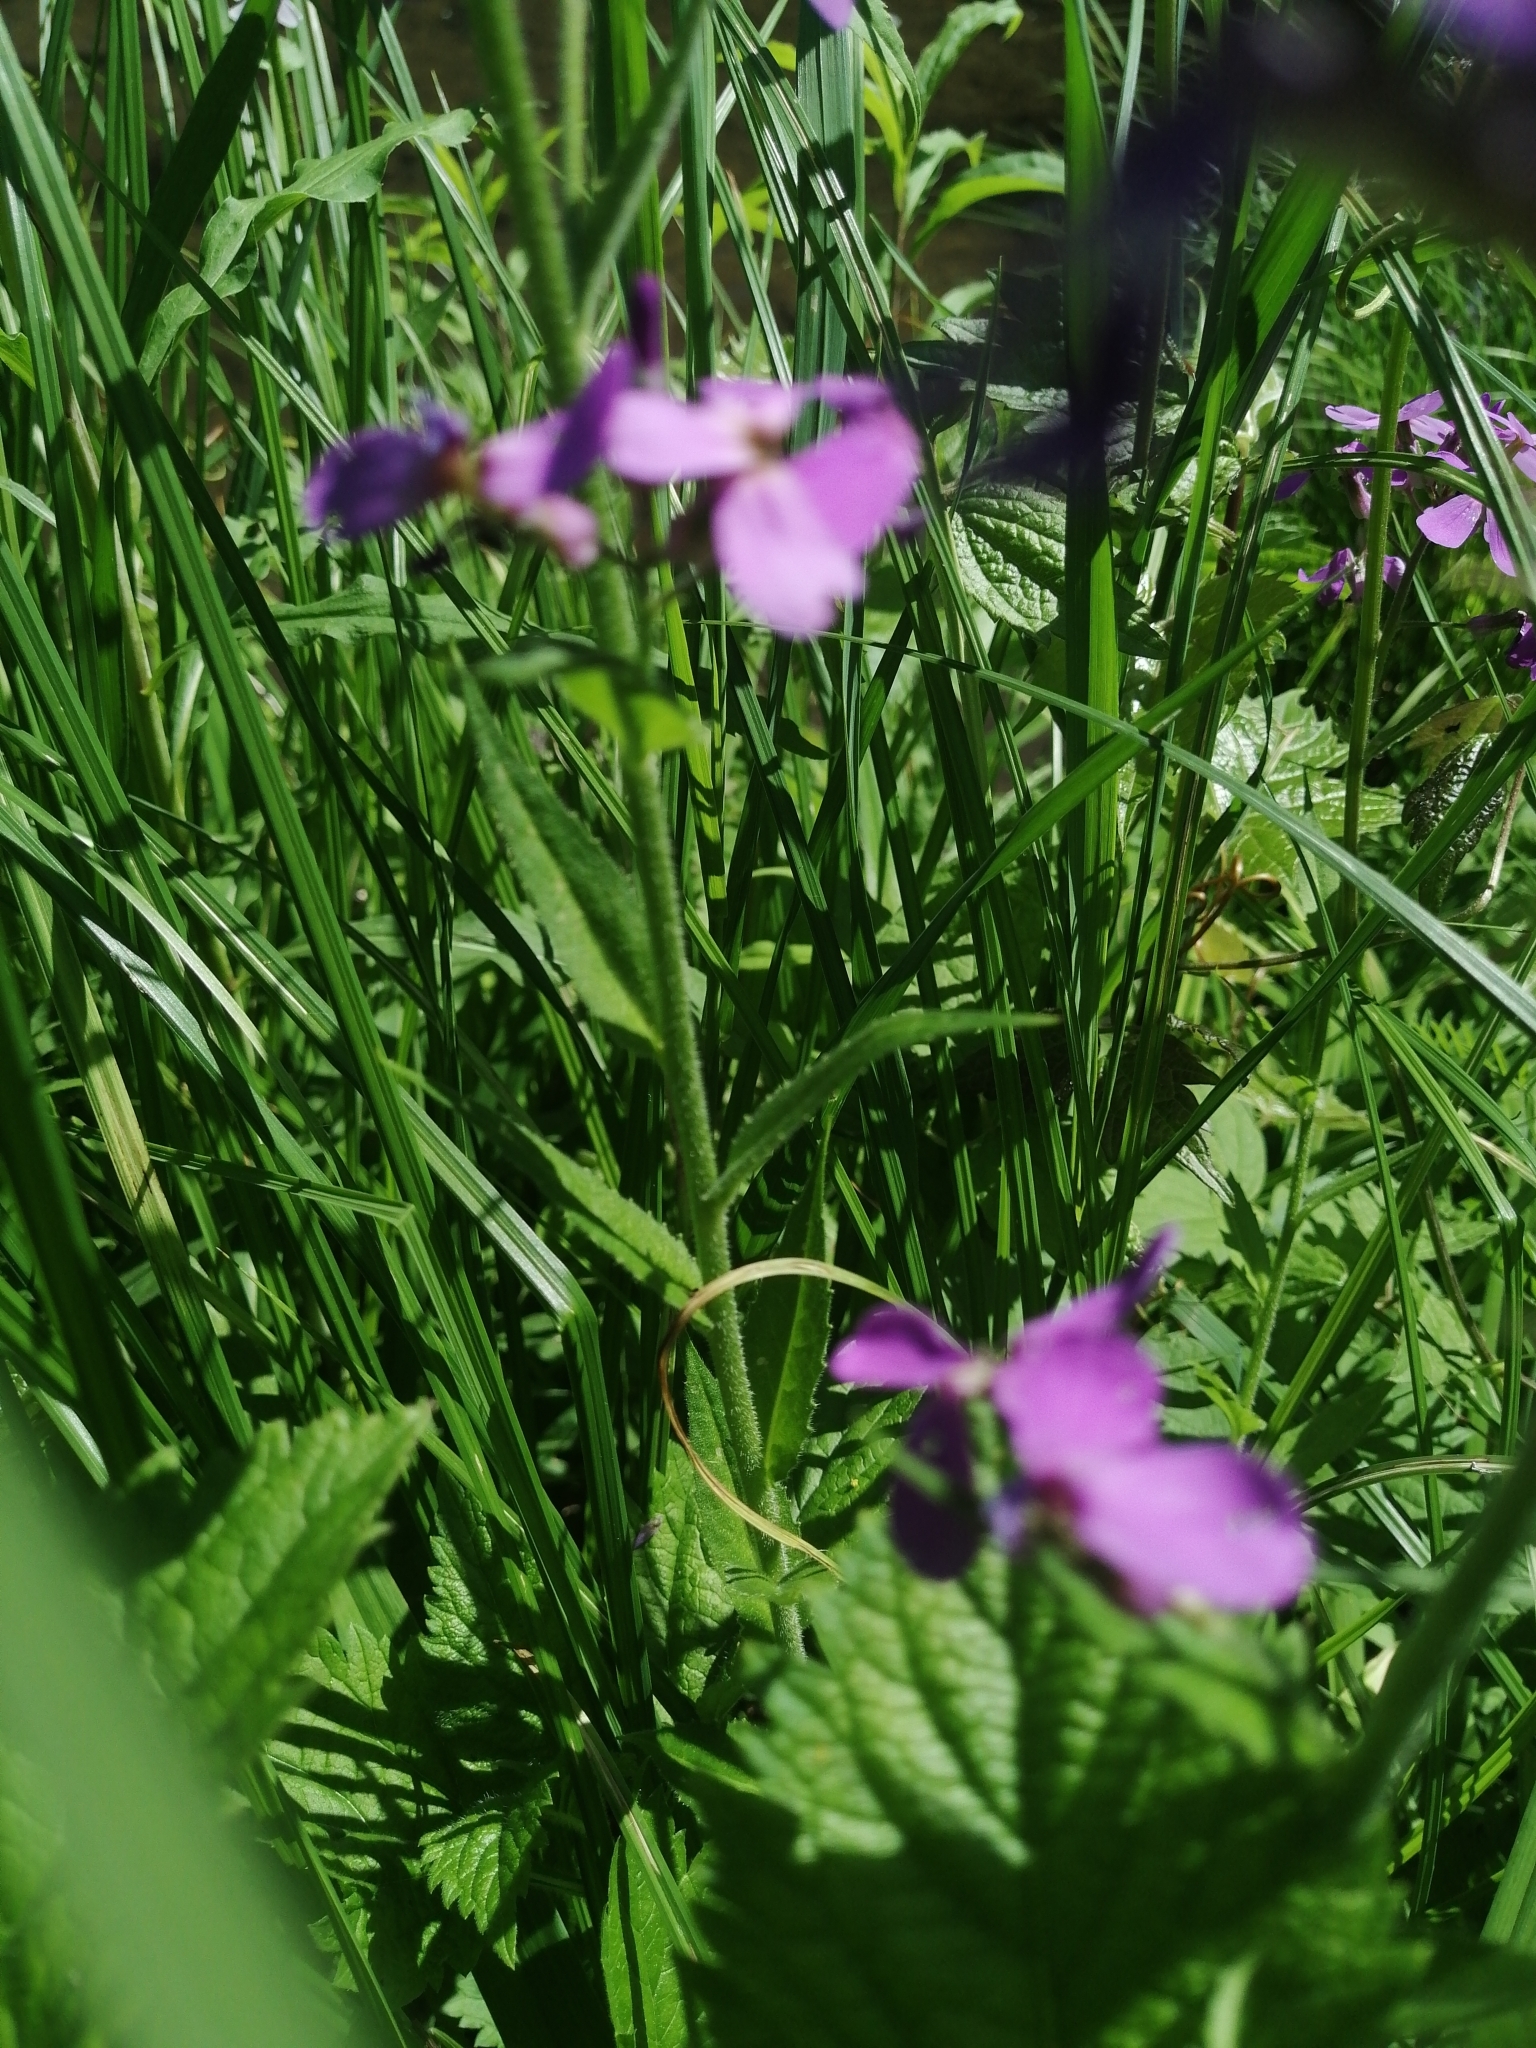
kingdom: Plantae
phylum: Tracheophyta
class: Magnoliopsida
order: Brassicales
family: Brassicaceae
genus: Hesperis
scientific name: Hesperis matronalis
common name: Dame's-violet
